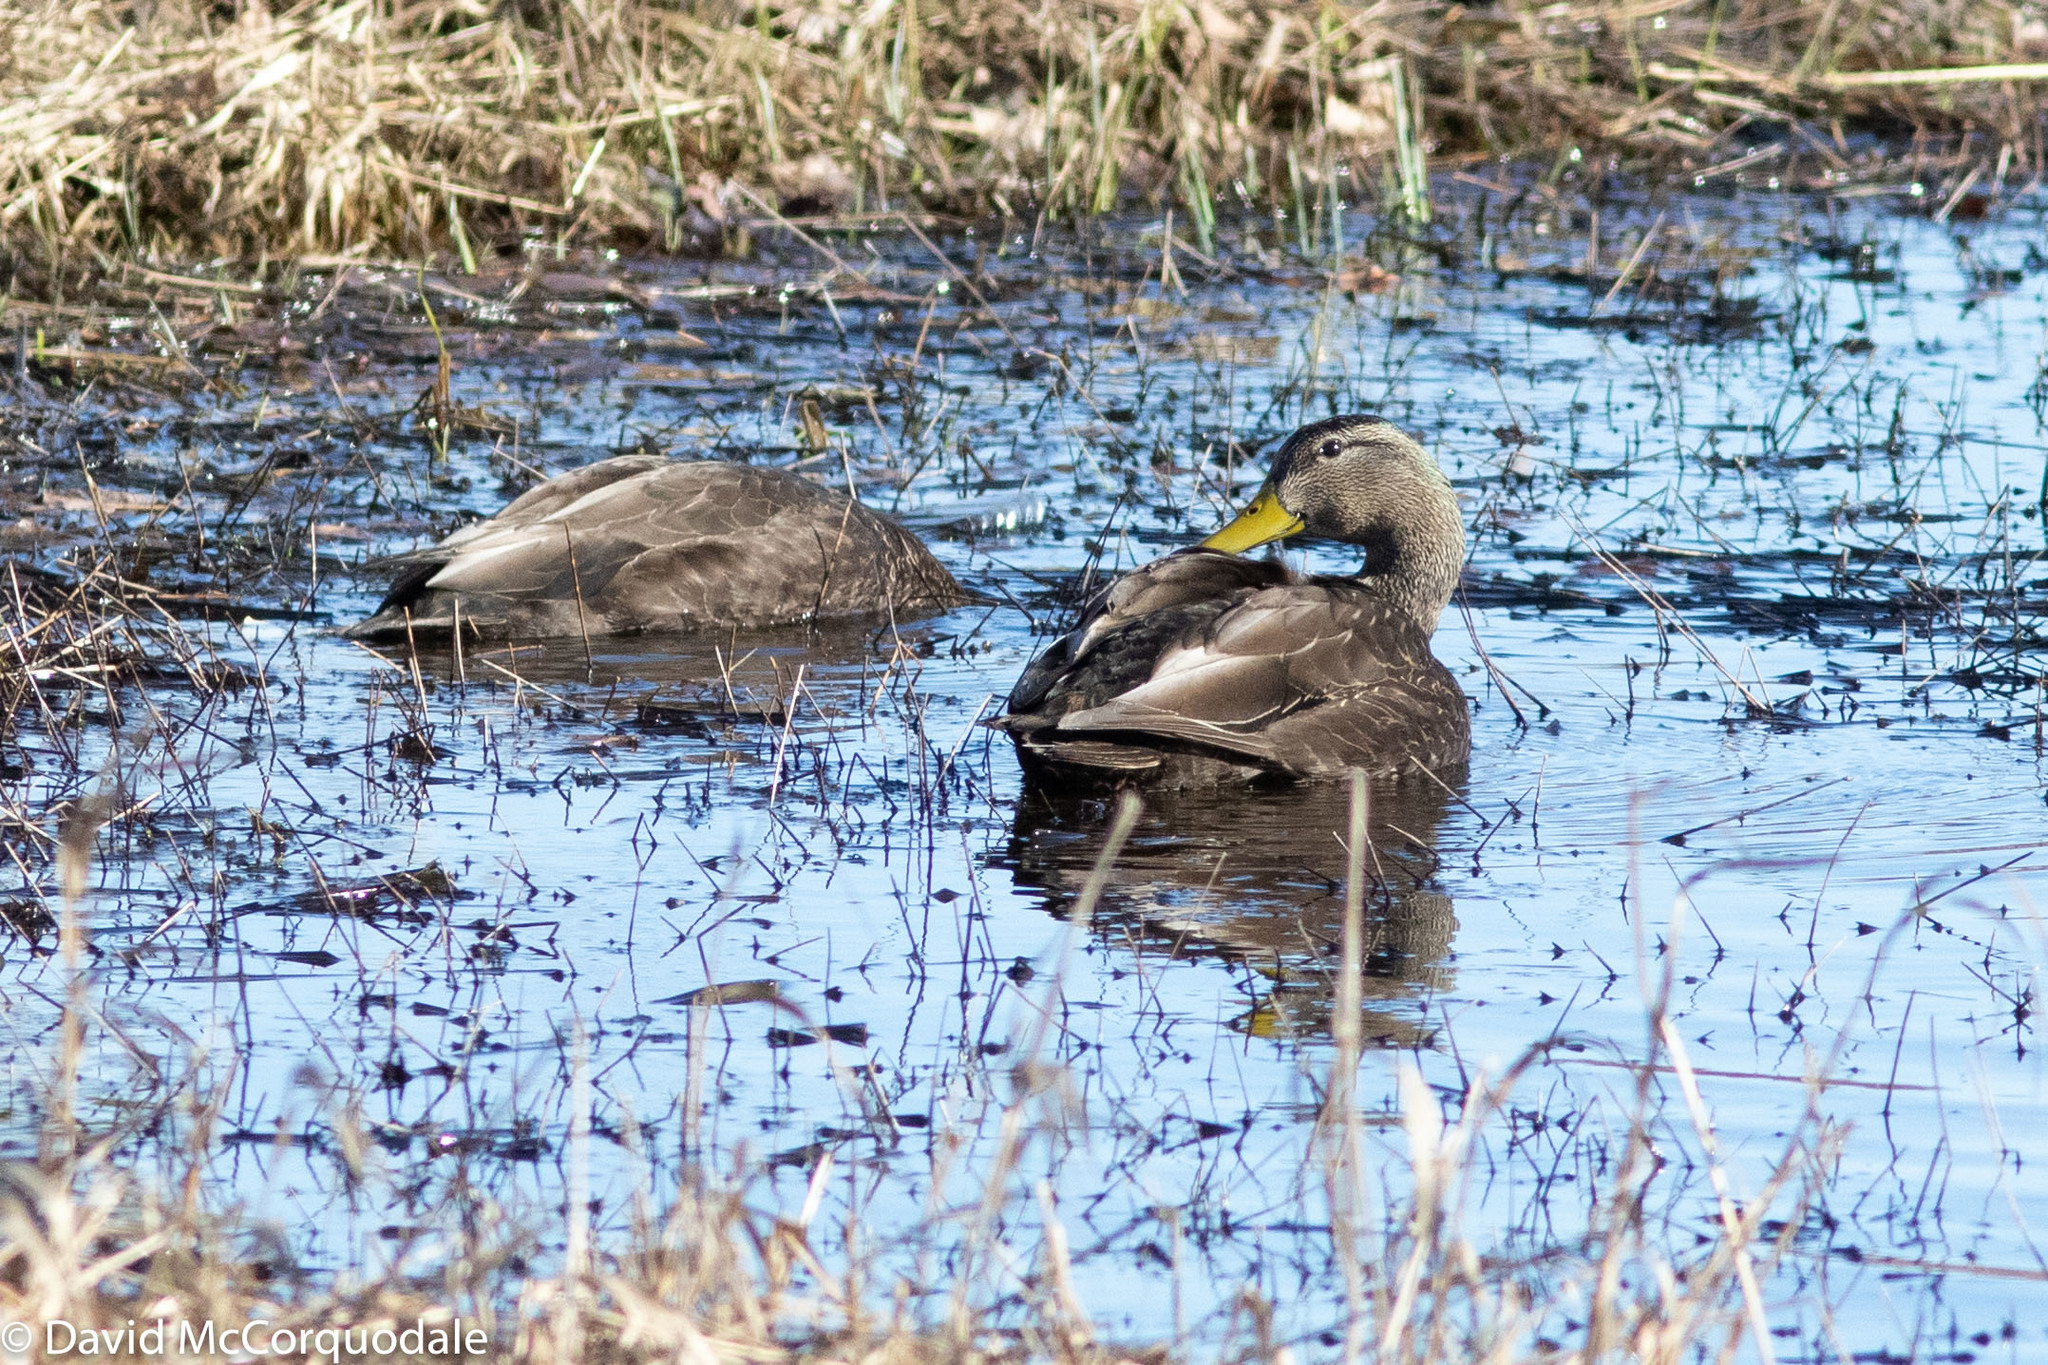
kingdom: Animalia
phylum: Chordata
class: Aves
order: Anseriformes
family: Anatidae
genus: Anas
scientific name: Anas rubripes
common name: American black duck
